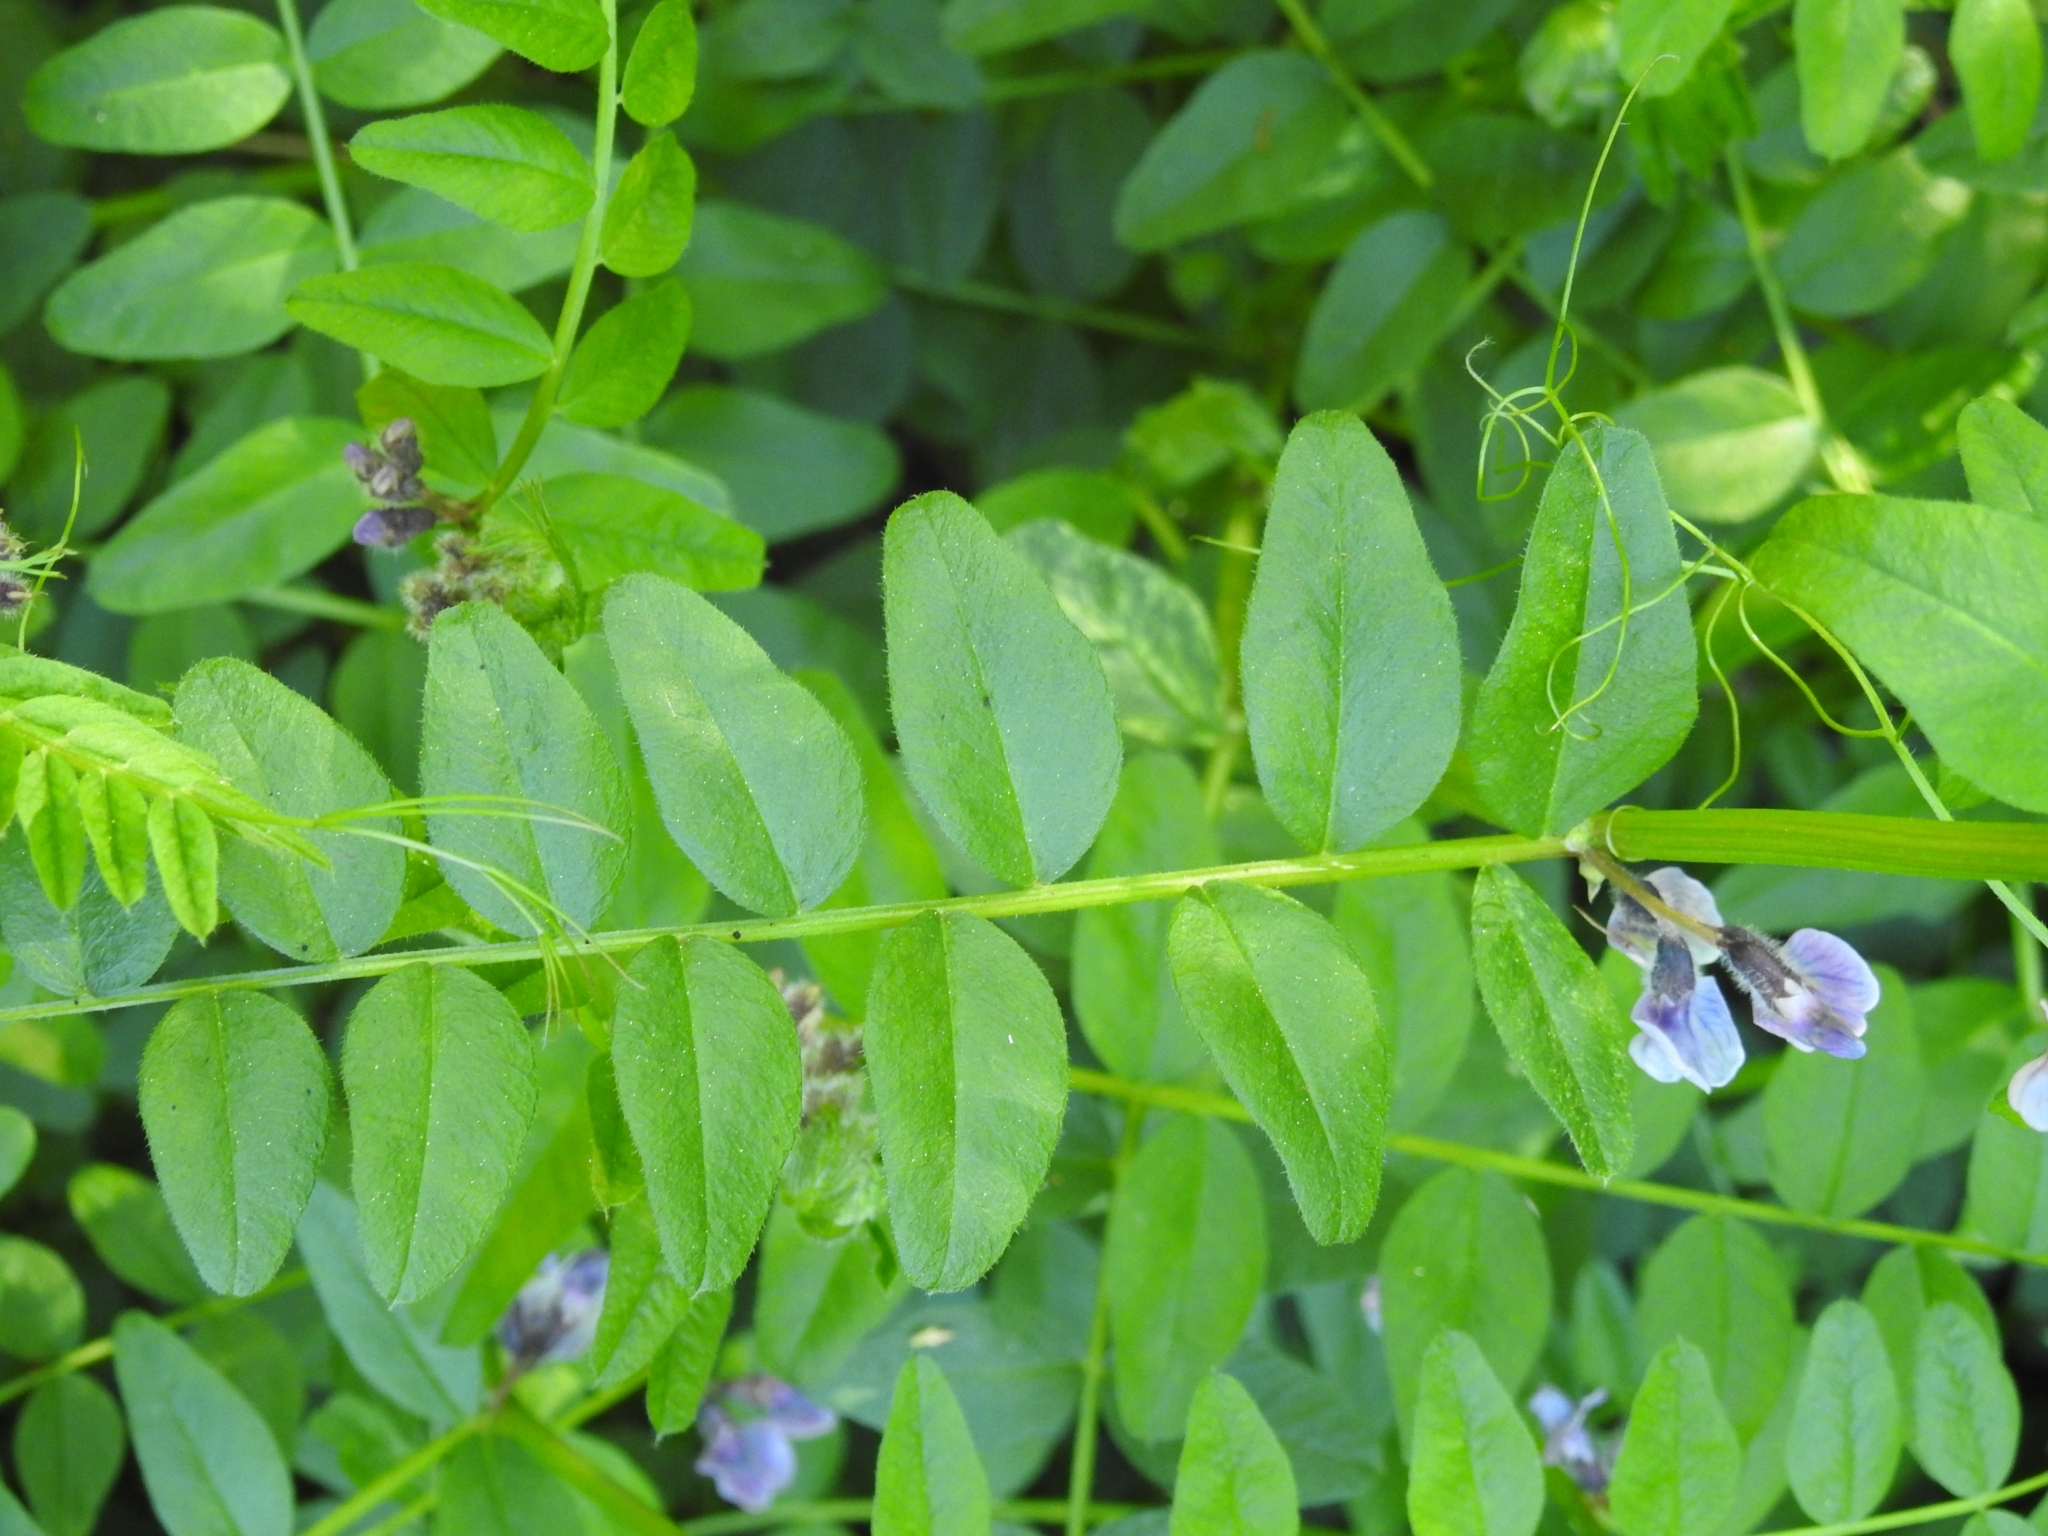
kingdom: Plantae
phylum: Tracheophyta
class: Magnoliopsida
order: Fabales
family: Fabaceae
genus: Vicia
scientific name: Vicia sepium
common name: Bush vetch
